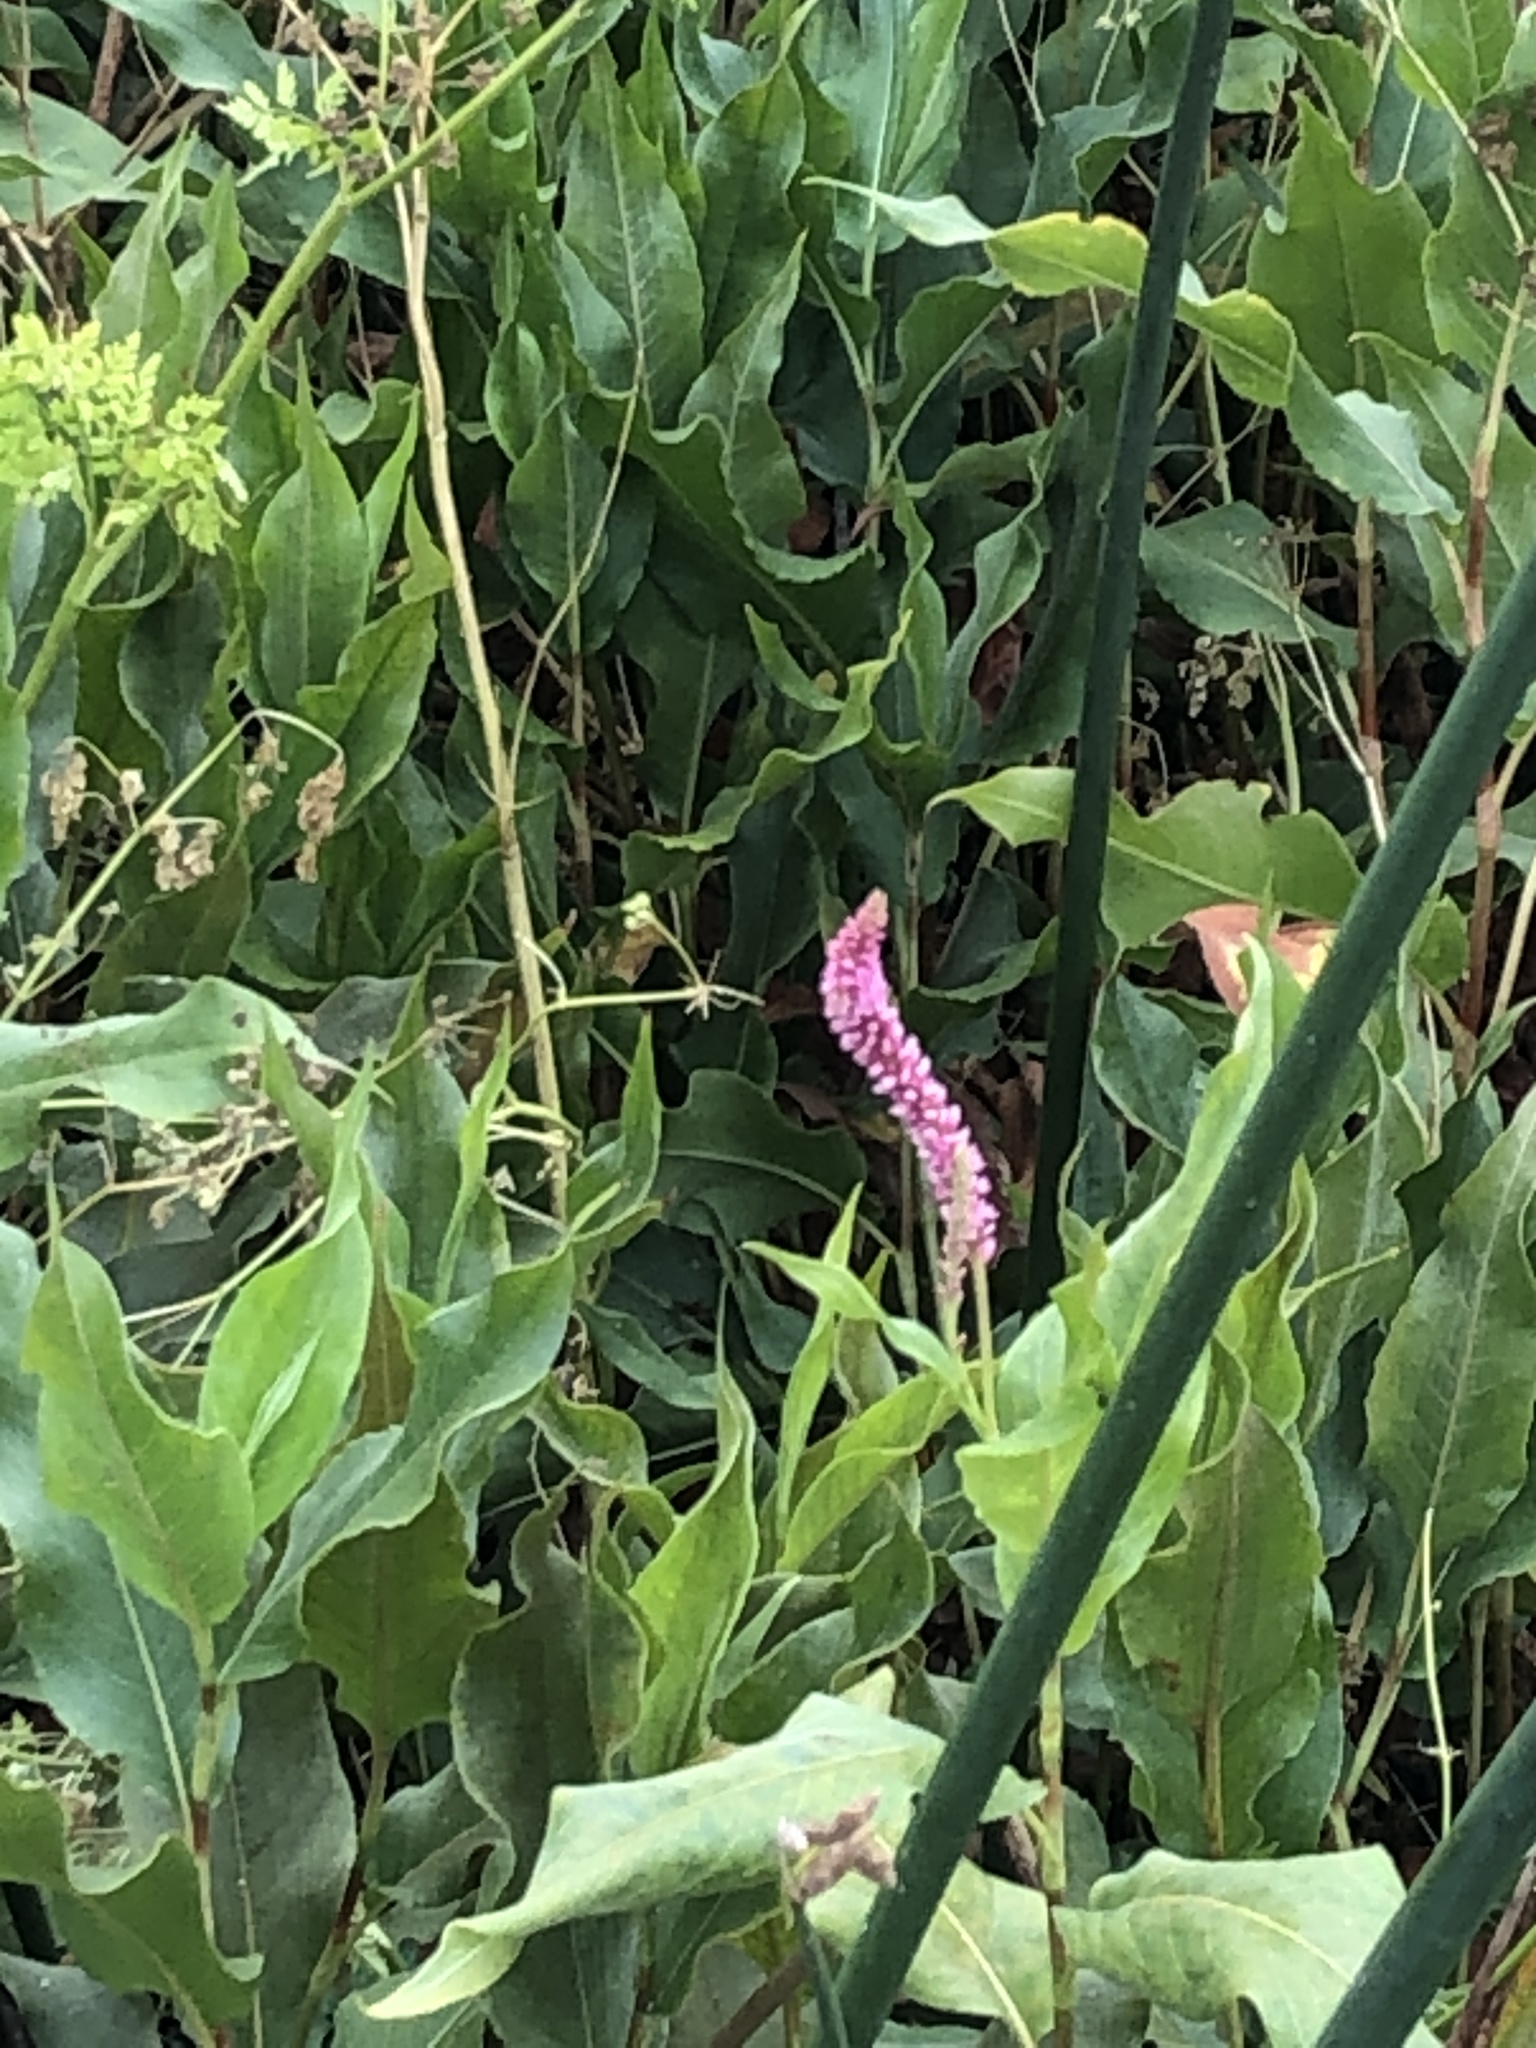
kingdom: Plantae
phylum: Tracheophyta
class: Magnoliopsida
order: Caryophyllales
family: Polygonaceae
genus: Persicaria
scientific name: Persicaria amphibia
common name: Amphibious bistort
